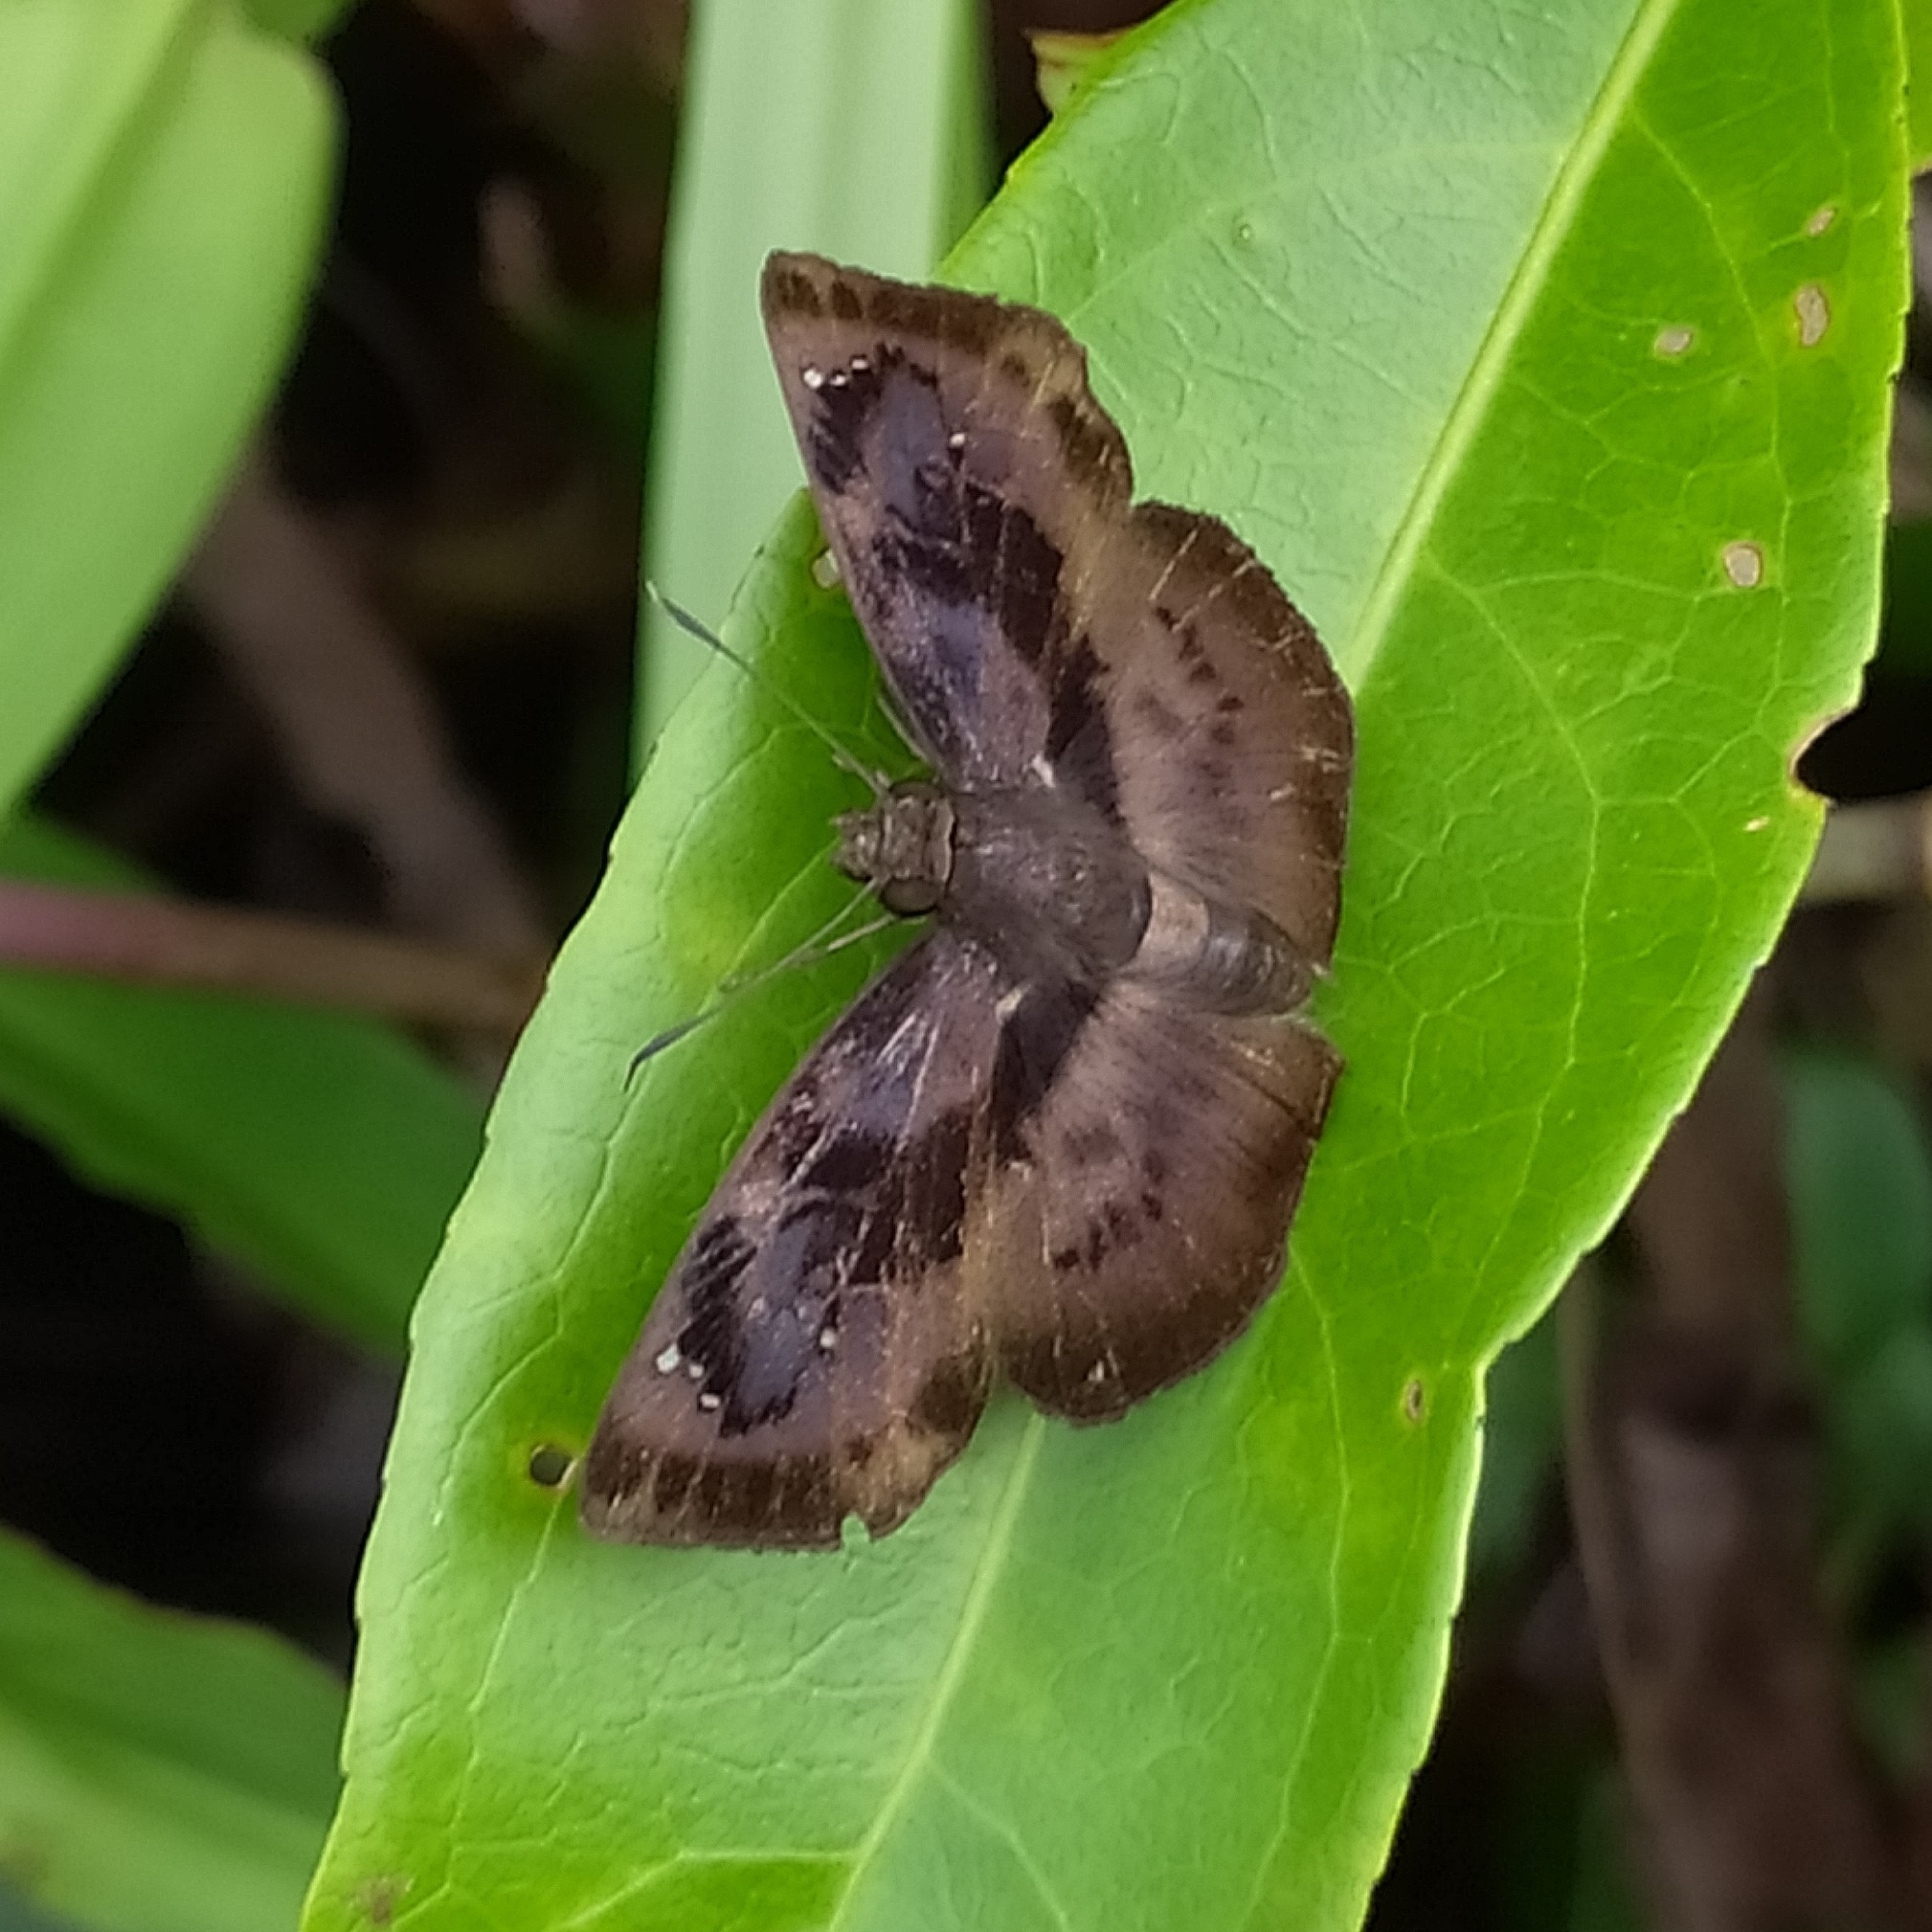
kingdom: Animalia
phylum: Arthropoda
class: Insecta
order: Lepidoptera
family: Hesperiidae
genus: Zera
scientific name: Zera tetrastigma
